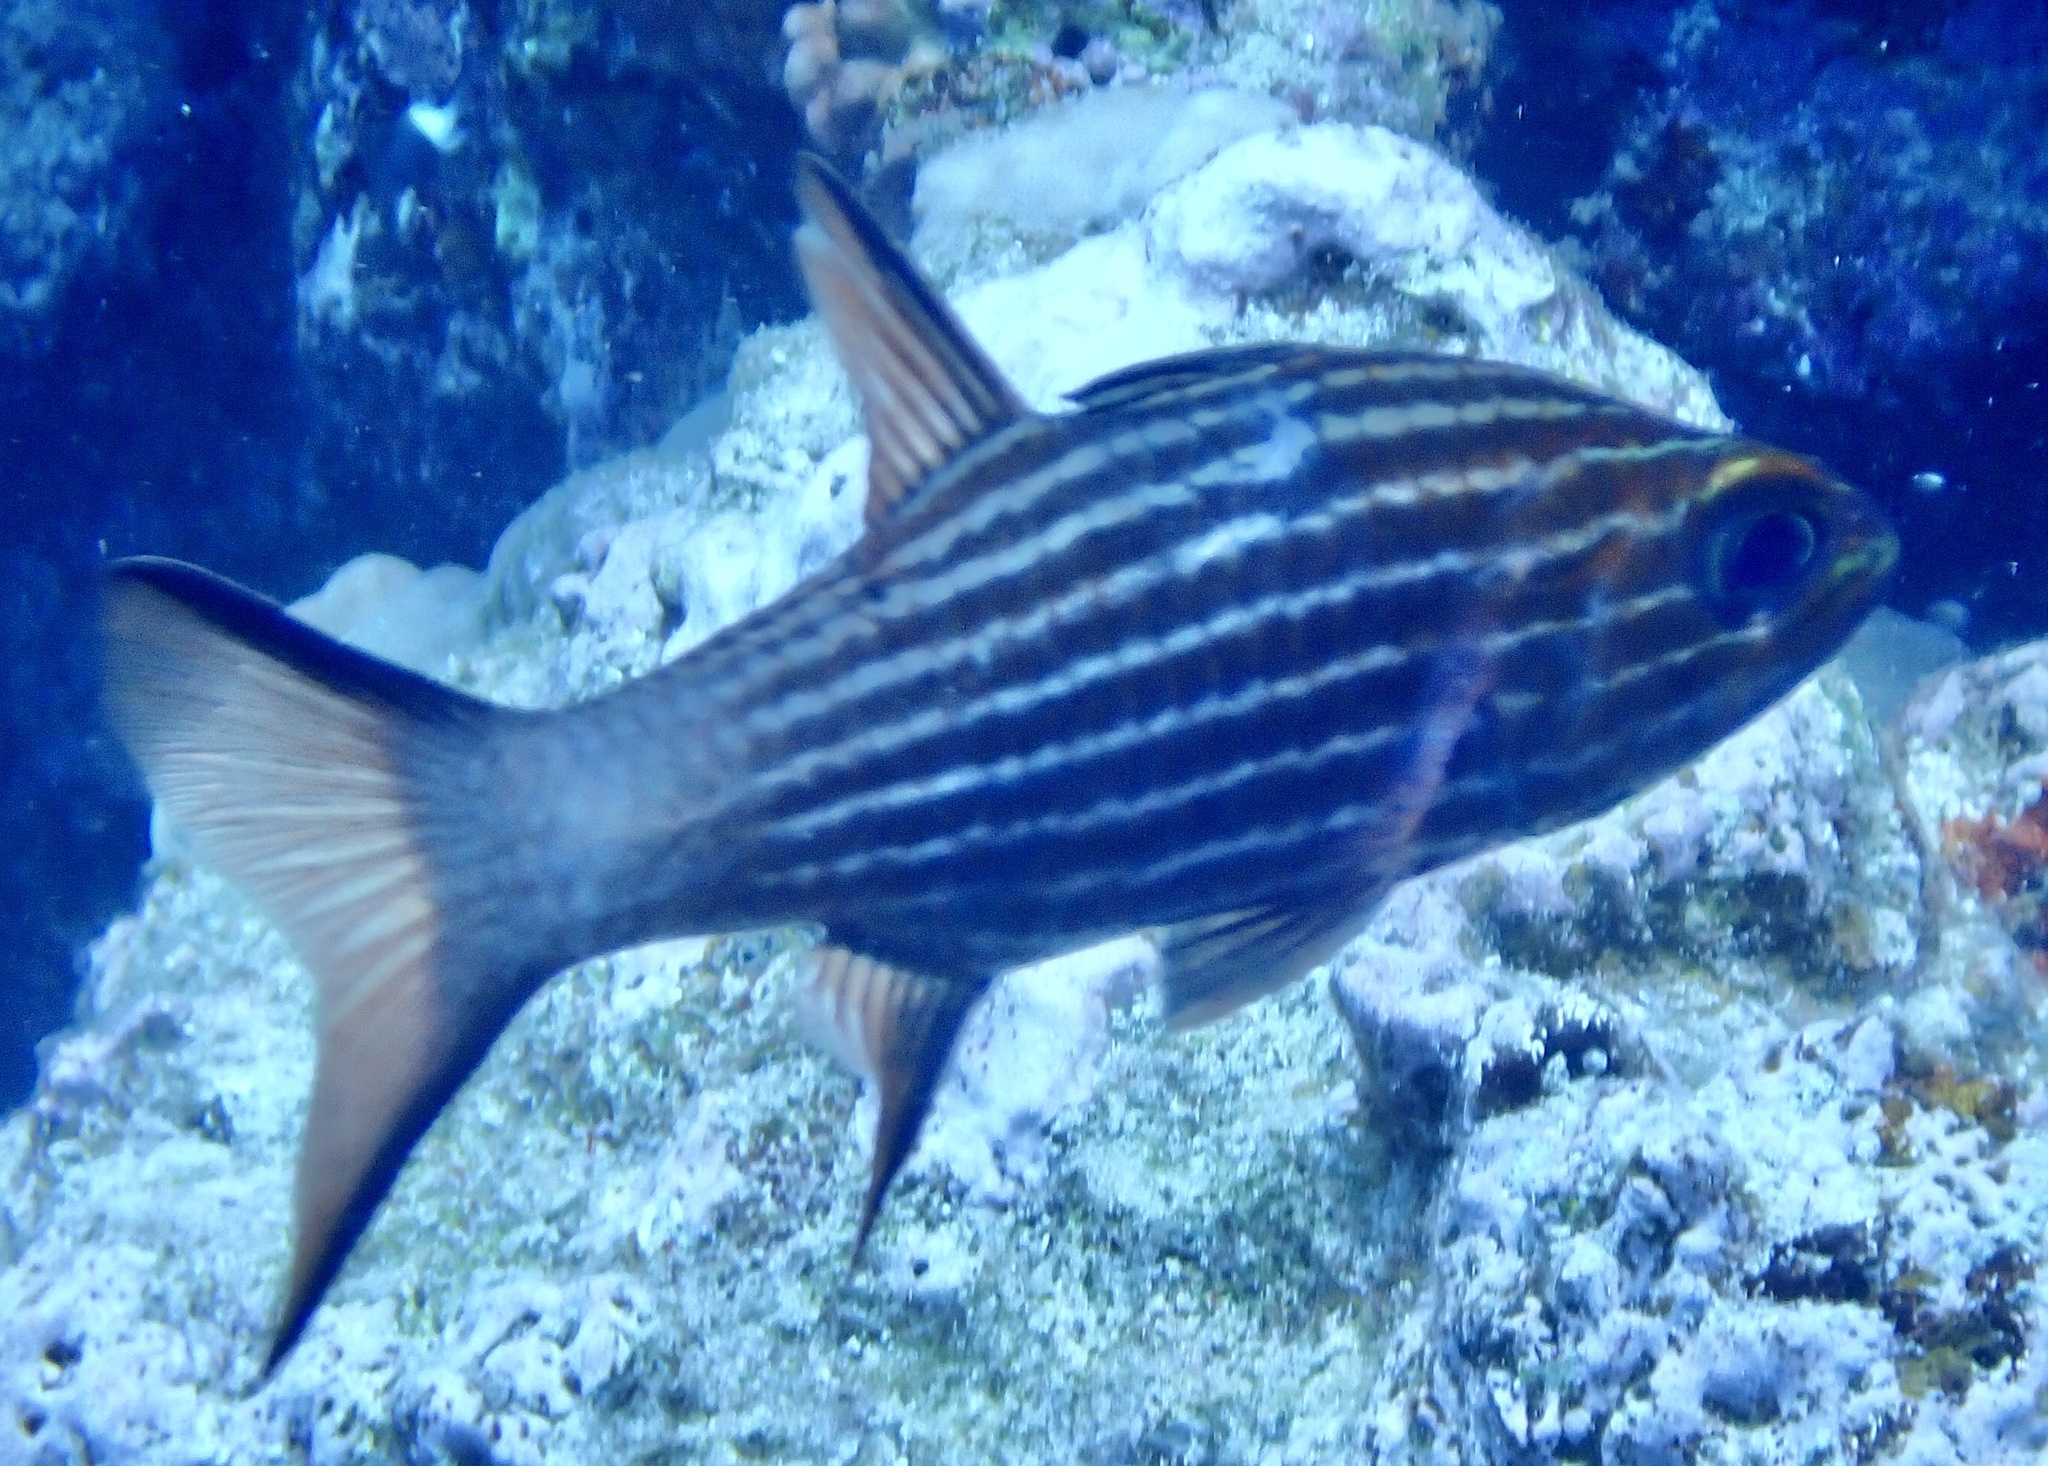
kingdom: Animalia
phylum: Chordata
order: Perciformes
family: Apogonidae
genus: Cheilodipterus
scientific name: Cheilodipterus macrodon
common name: Eight-lined cardinalfish
